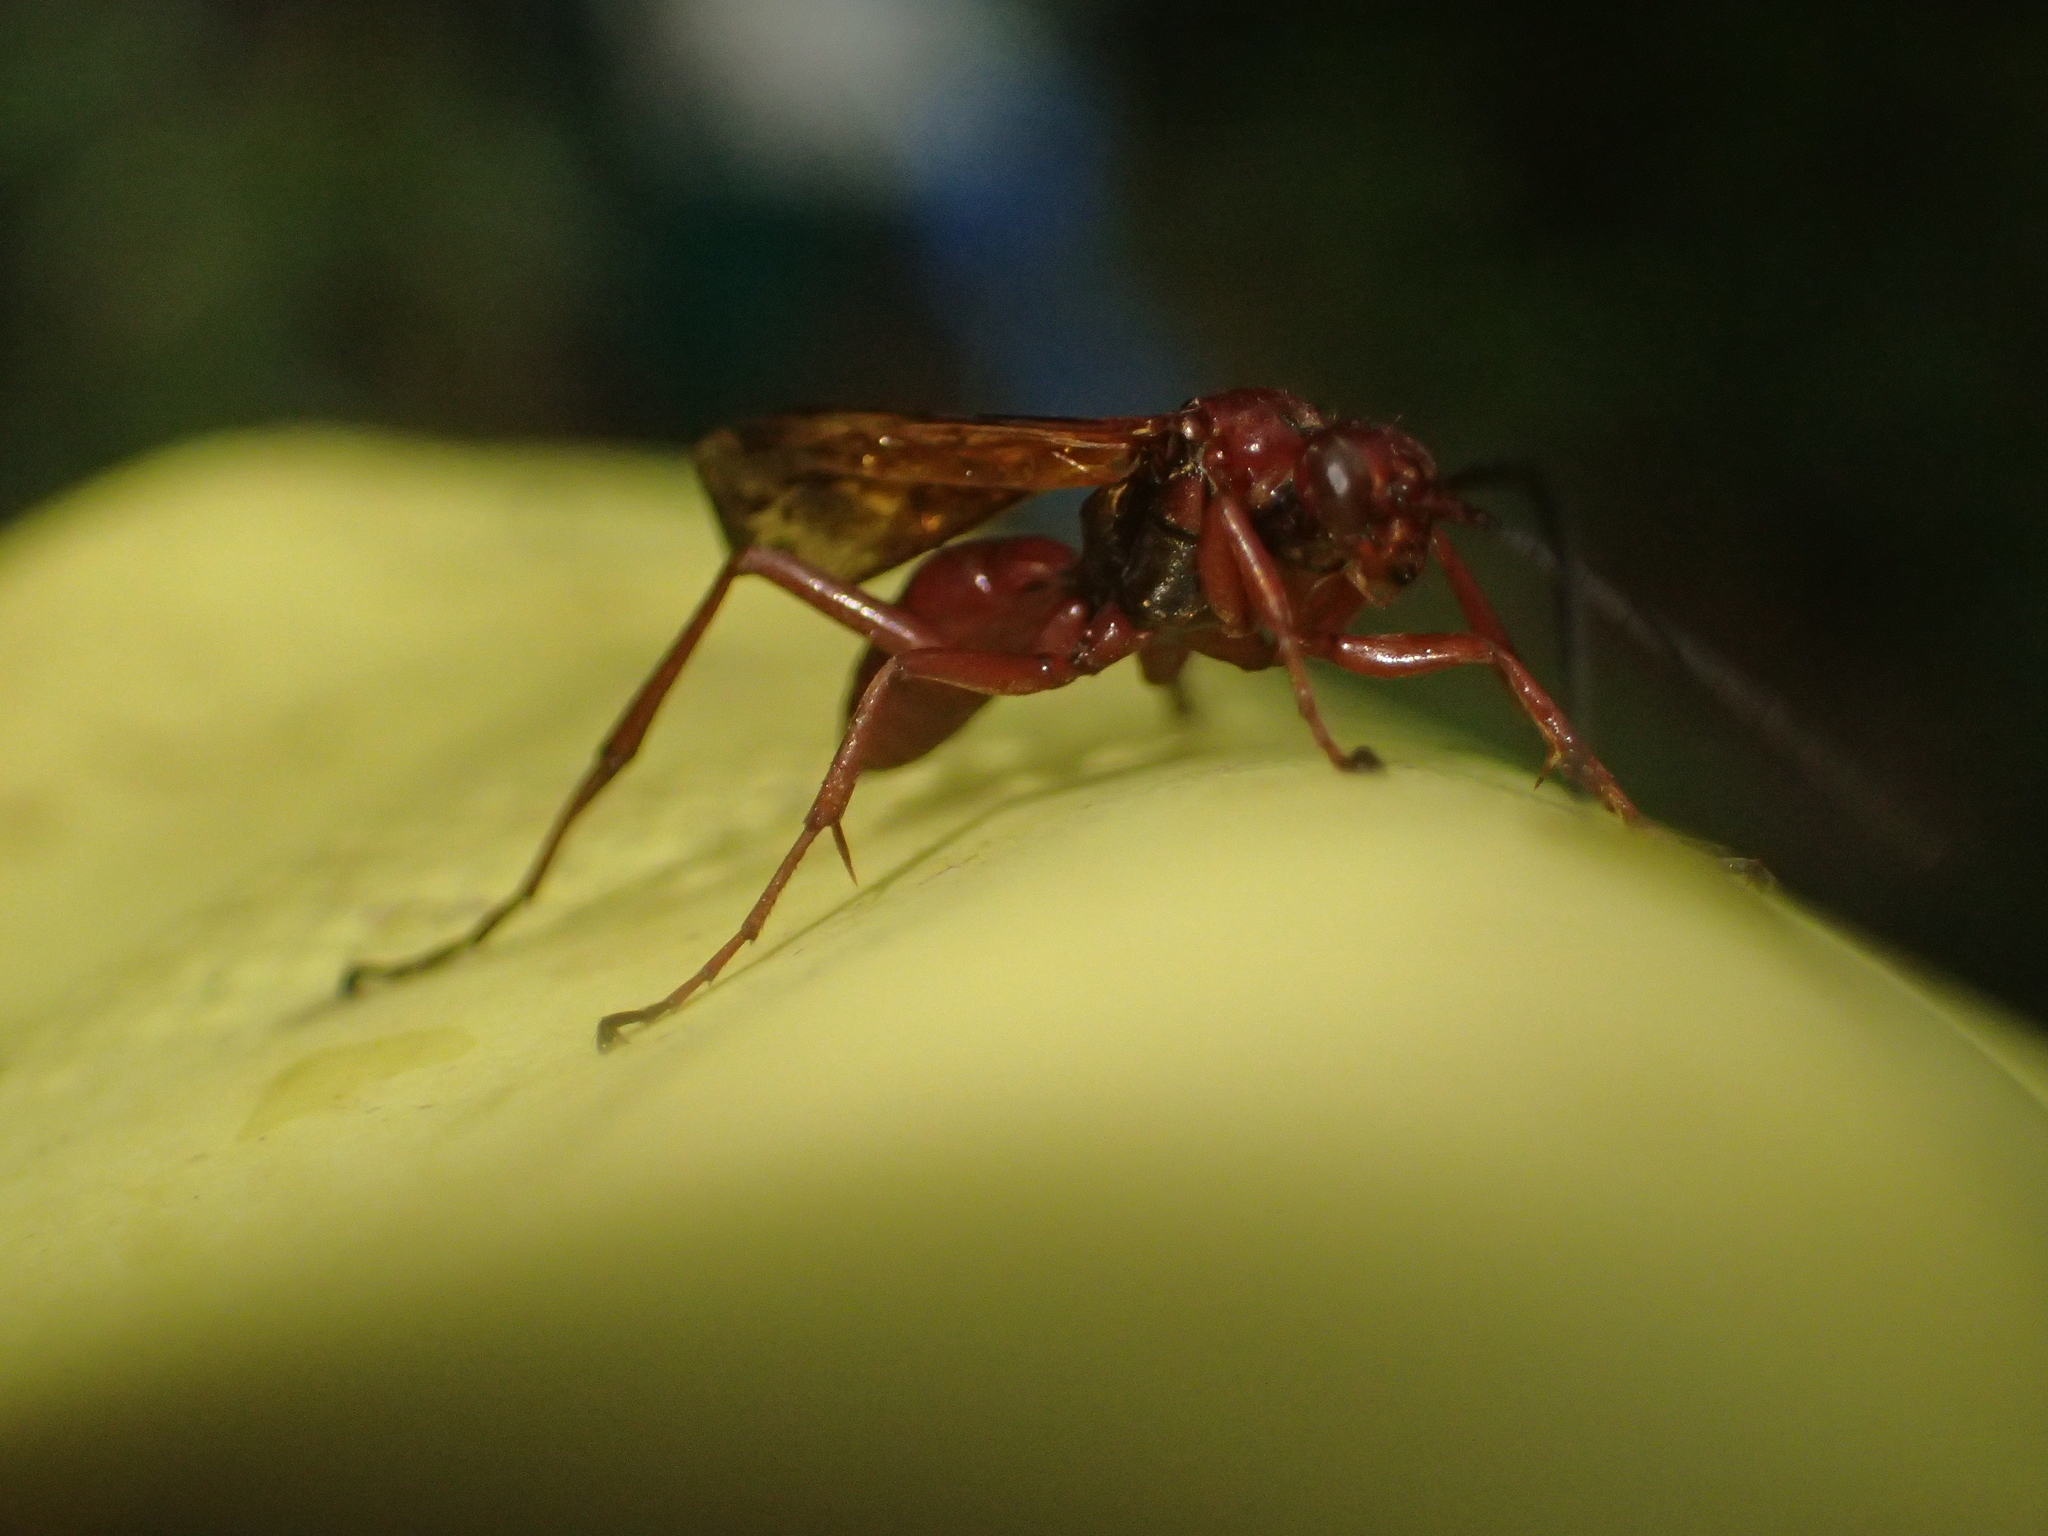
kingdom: Animalia
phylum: Arthropoda
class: Insecta
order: Hymenoptera
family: Pompilidae
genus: Sphictostethus
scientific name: Sphictostethus nitidus
